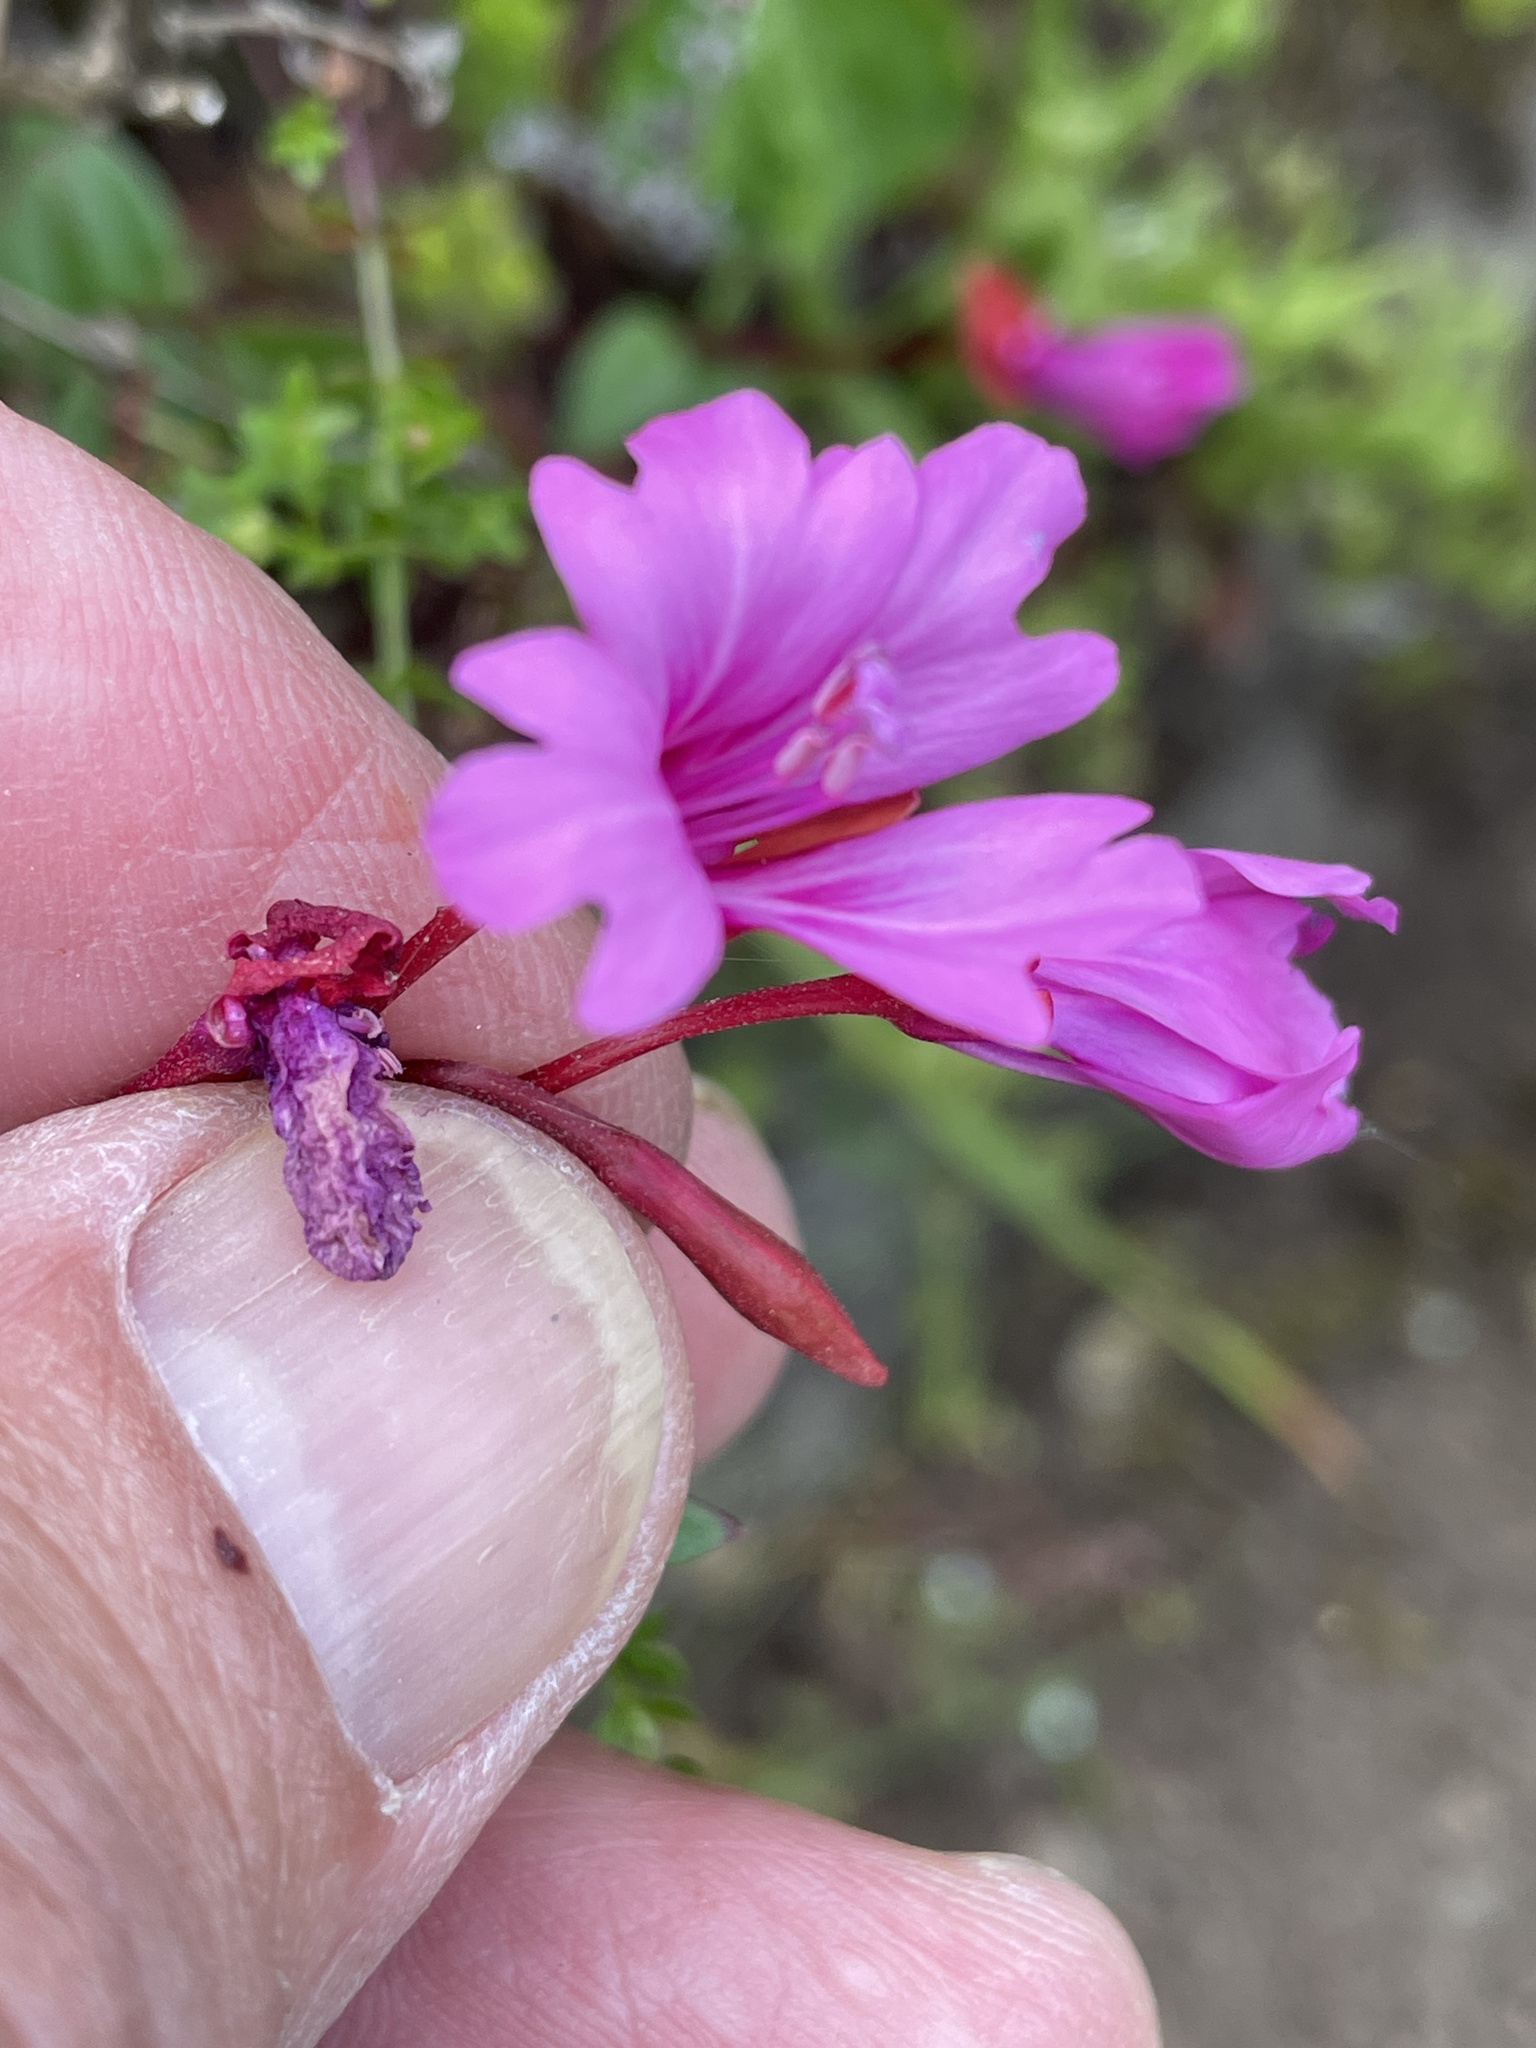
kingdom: Plantae
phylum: Tracheophyta
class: Magnoliopsida
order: Myrtales
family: Onagraceae
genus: Clarkia
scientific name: Clarkia concinna
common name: Red-ribbons
